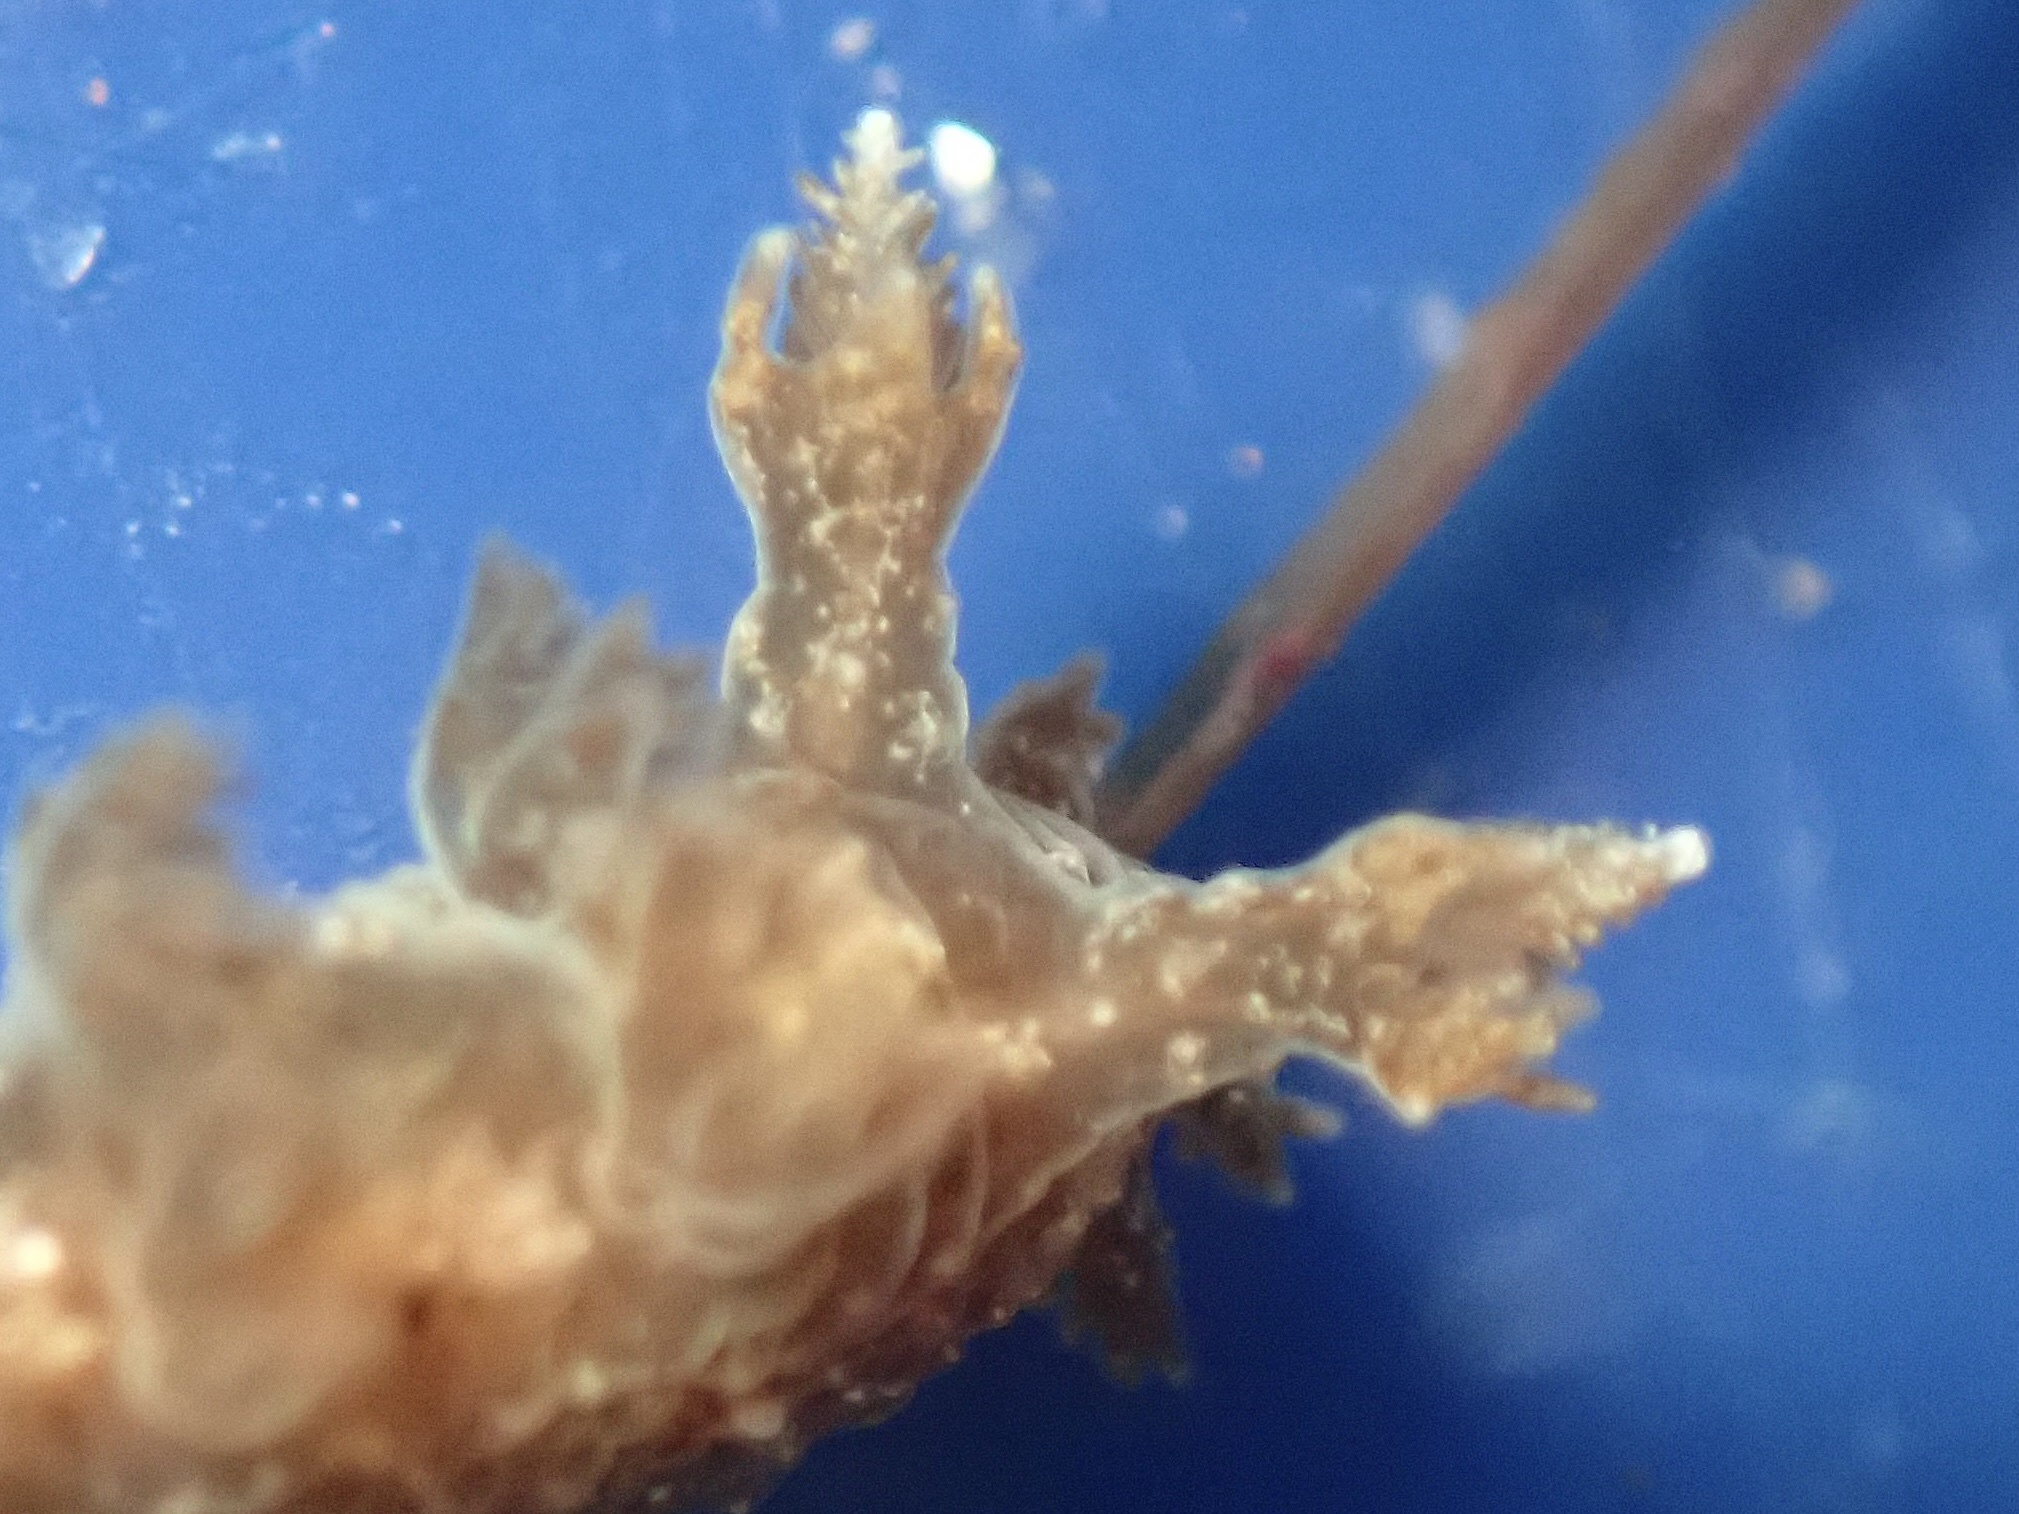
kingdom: Animalia
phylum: Mollusca
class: Gastropoda
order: Nudibranchia
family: Dendronotidae
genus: Dendronotus
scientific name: Dendronotus subramosus
